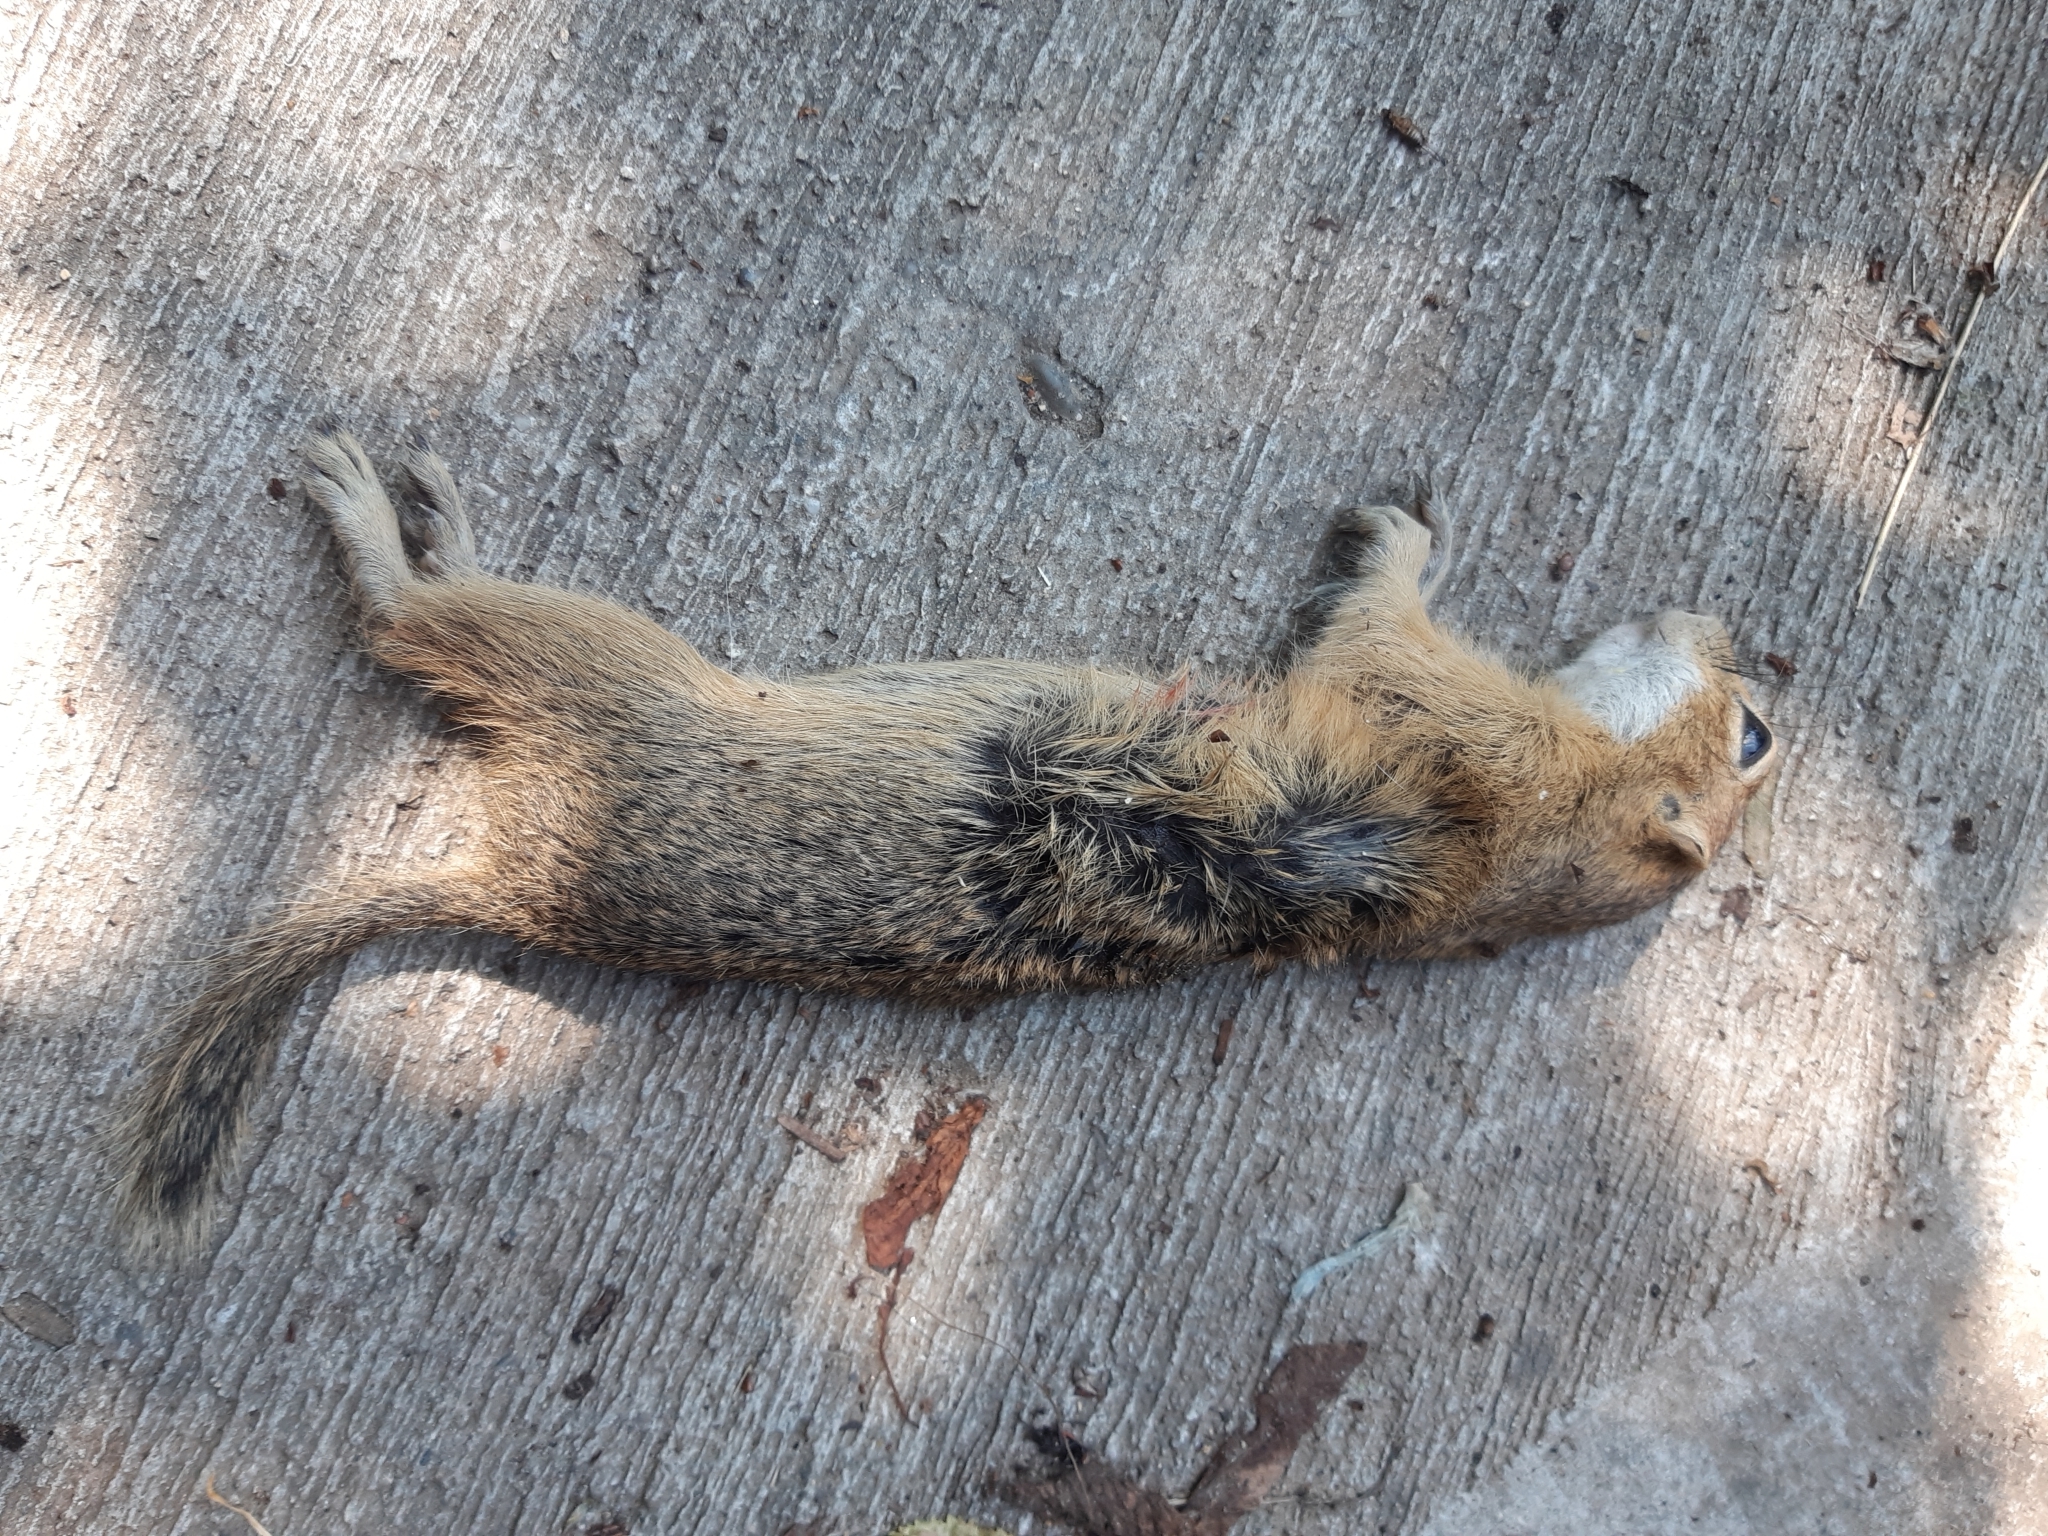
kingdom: Animalia
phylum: Chordata
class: Mammalia
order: Rodentia
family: Sciuridae
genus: Spermophilus
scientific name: Spermophilus citellus
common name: European ground squirrel
